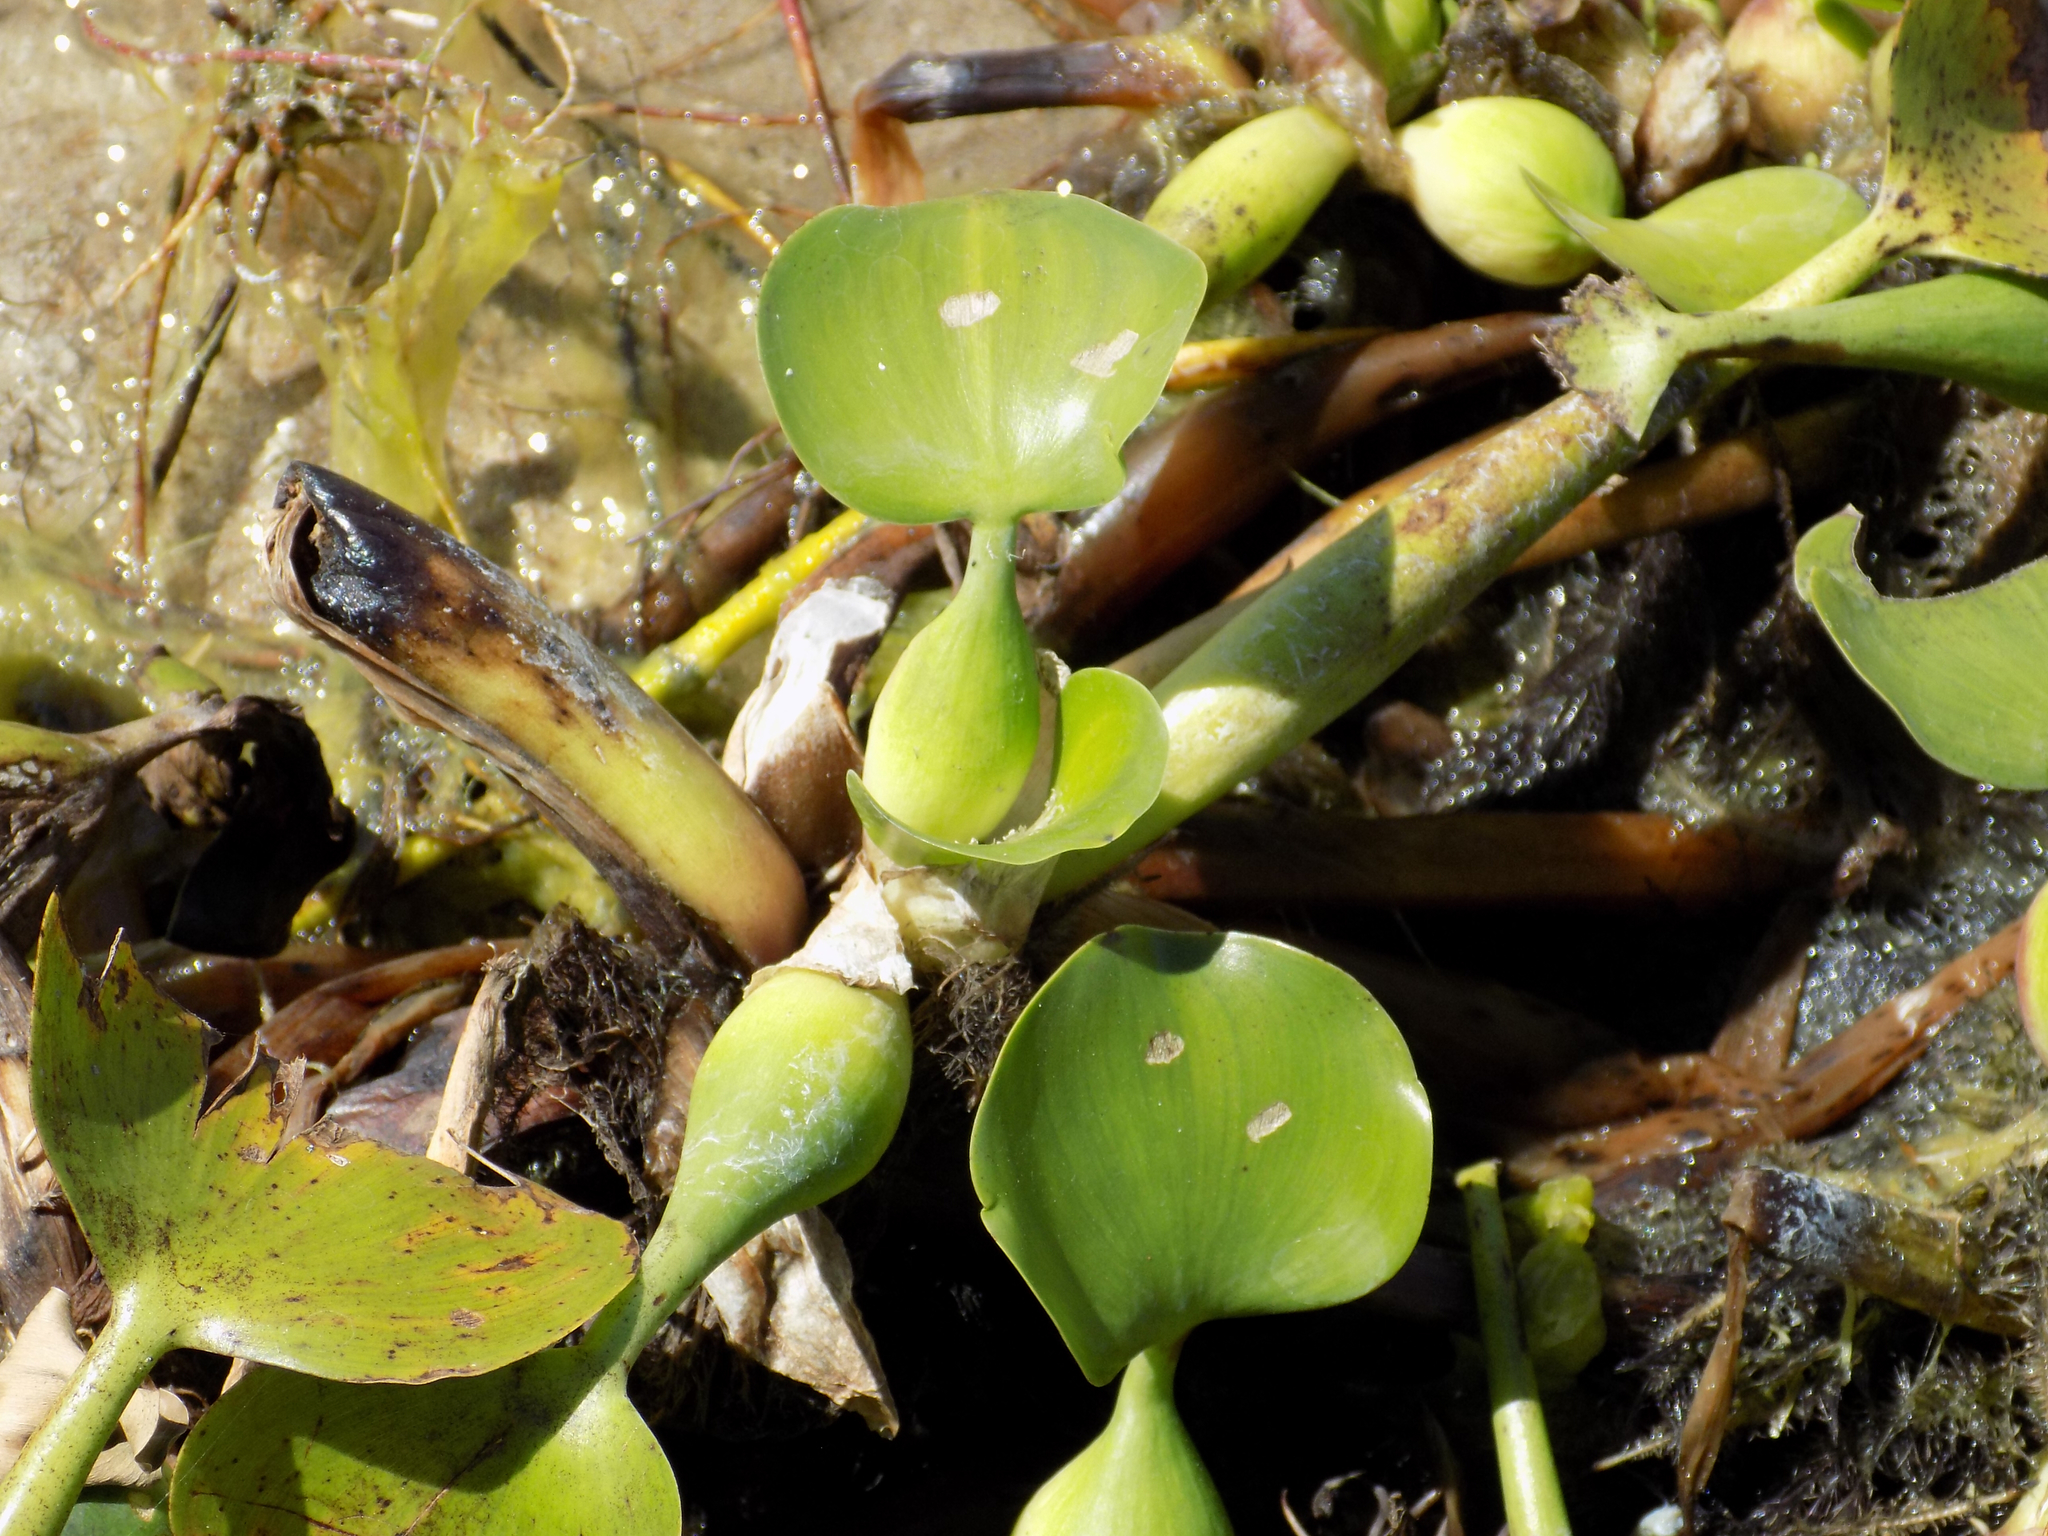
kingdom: Plantae
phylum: Tracheophyta
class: Liliopsida
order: Commelinales
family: Pontederiaceae
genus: Pontederia
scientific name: Pontederia crassipes
